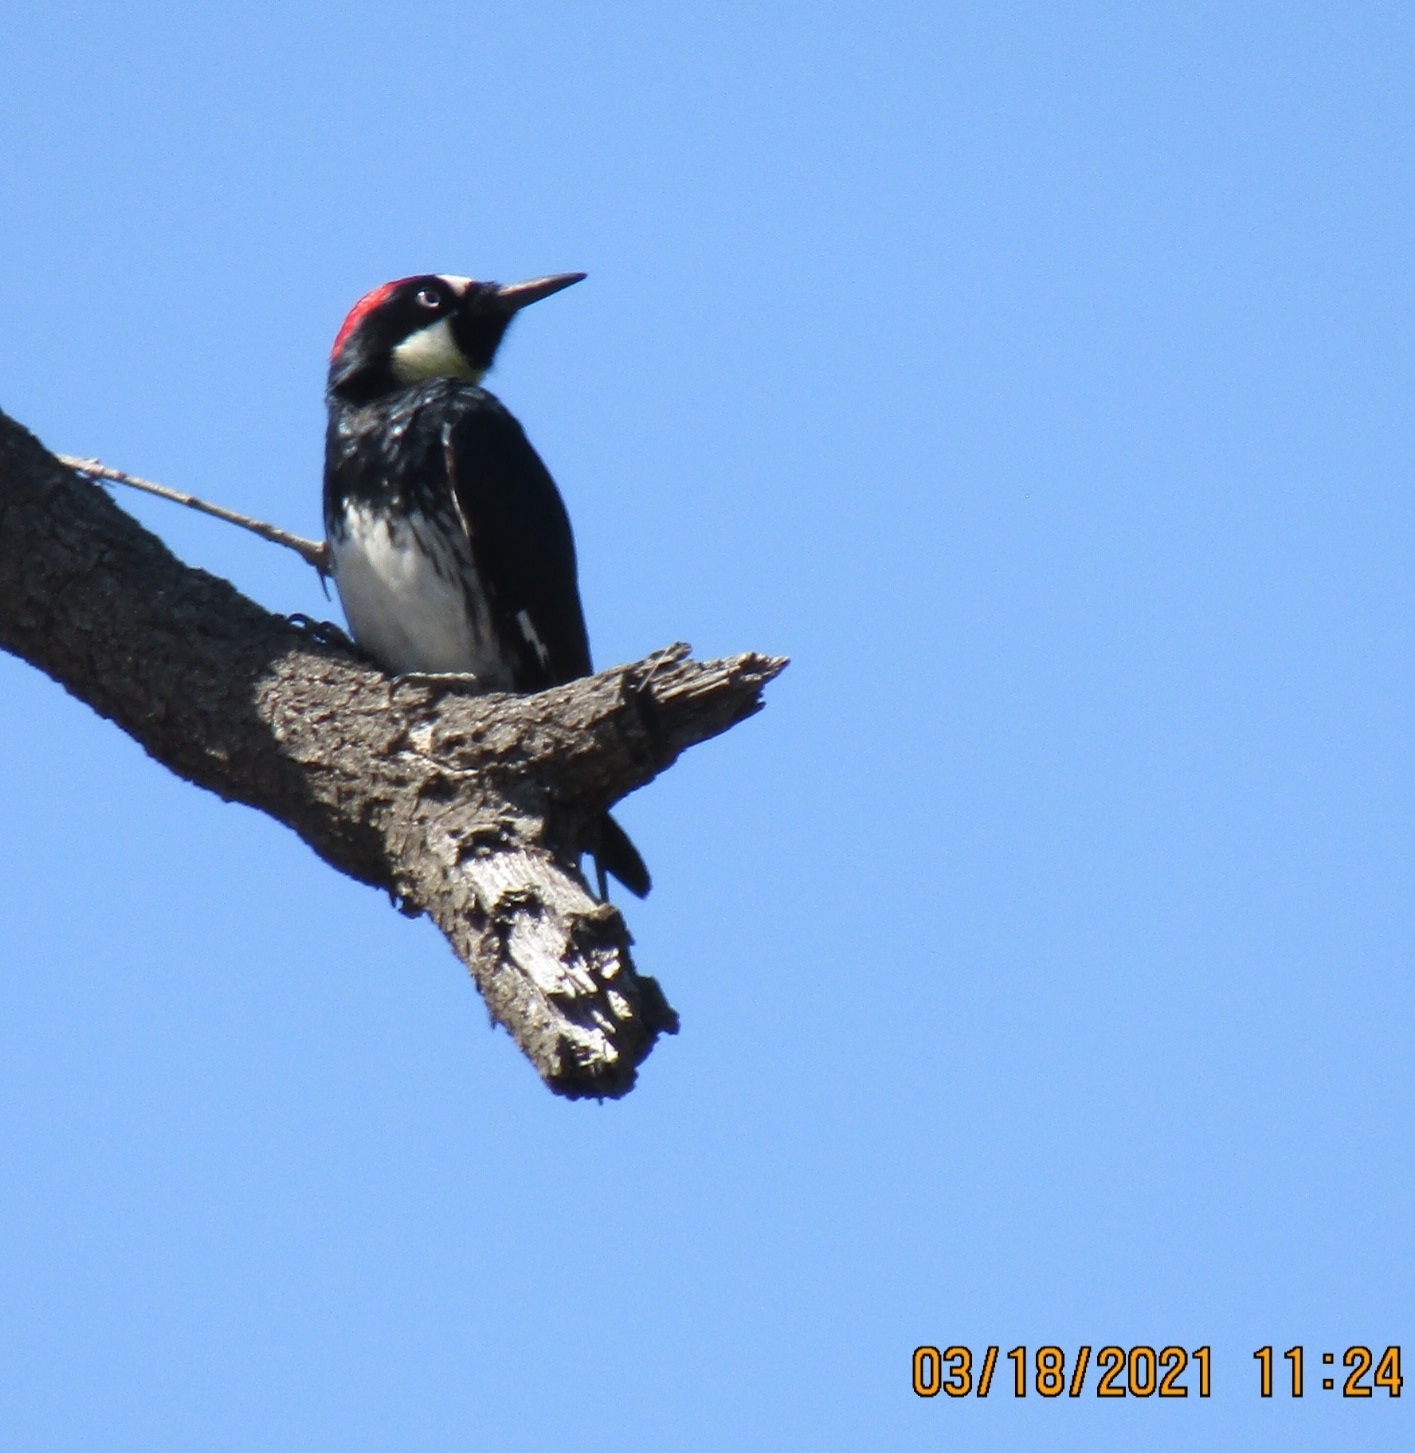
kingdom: Animalia
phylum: Chordata
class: Aves
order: Piciformes
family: Picidae
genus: Melanerpes
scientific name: Melanerpes formicivorus
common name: Acorn woodpecker
